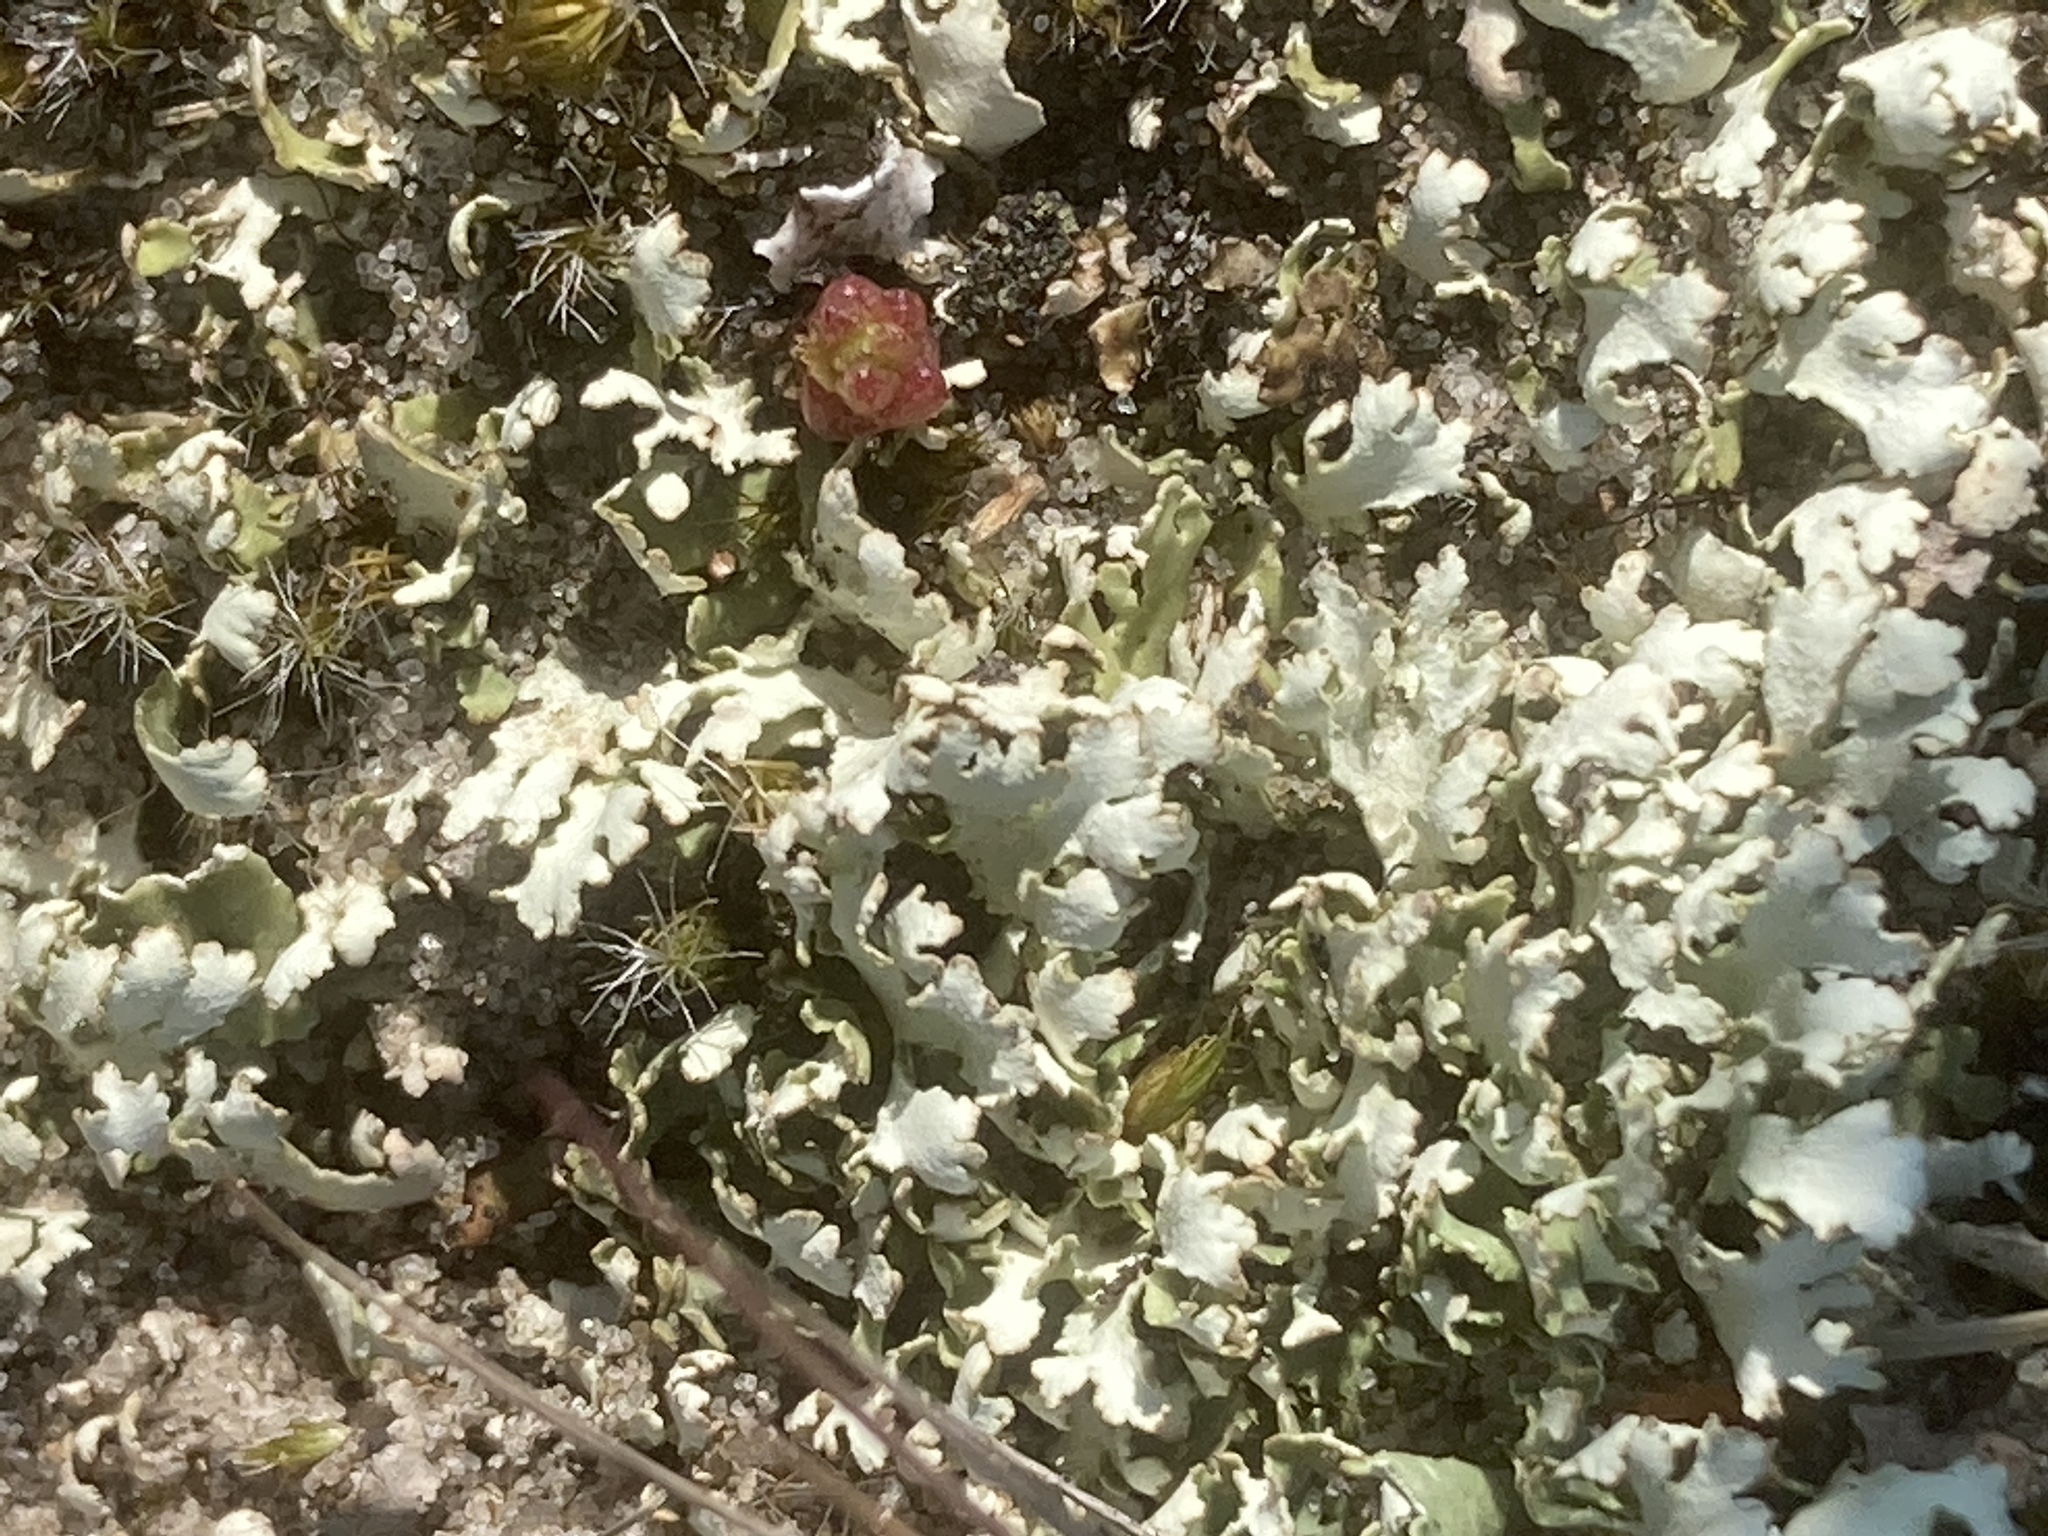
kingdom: Fungi
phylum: Ascomycota
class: Lecanoromycetes
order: Lecanorales
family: Cladoniaceae
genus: Cladonia
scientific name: Cladonia foliacea
